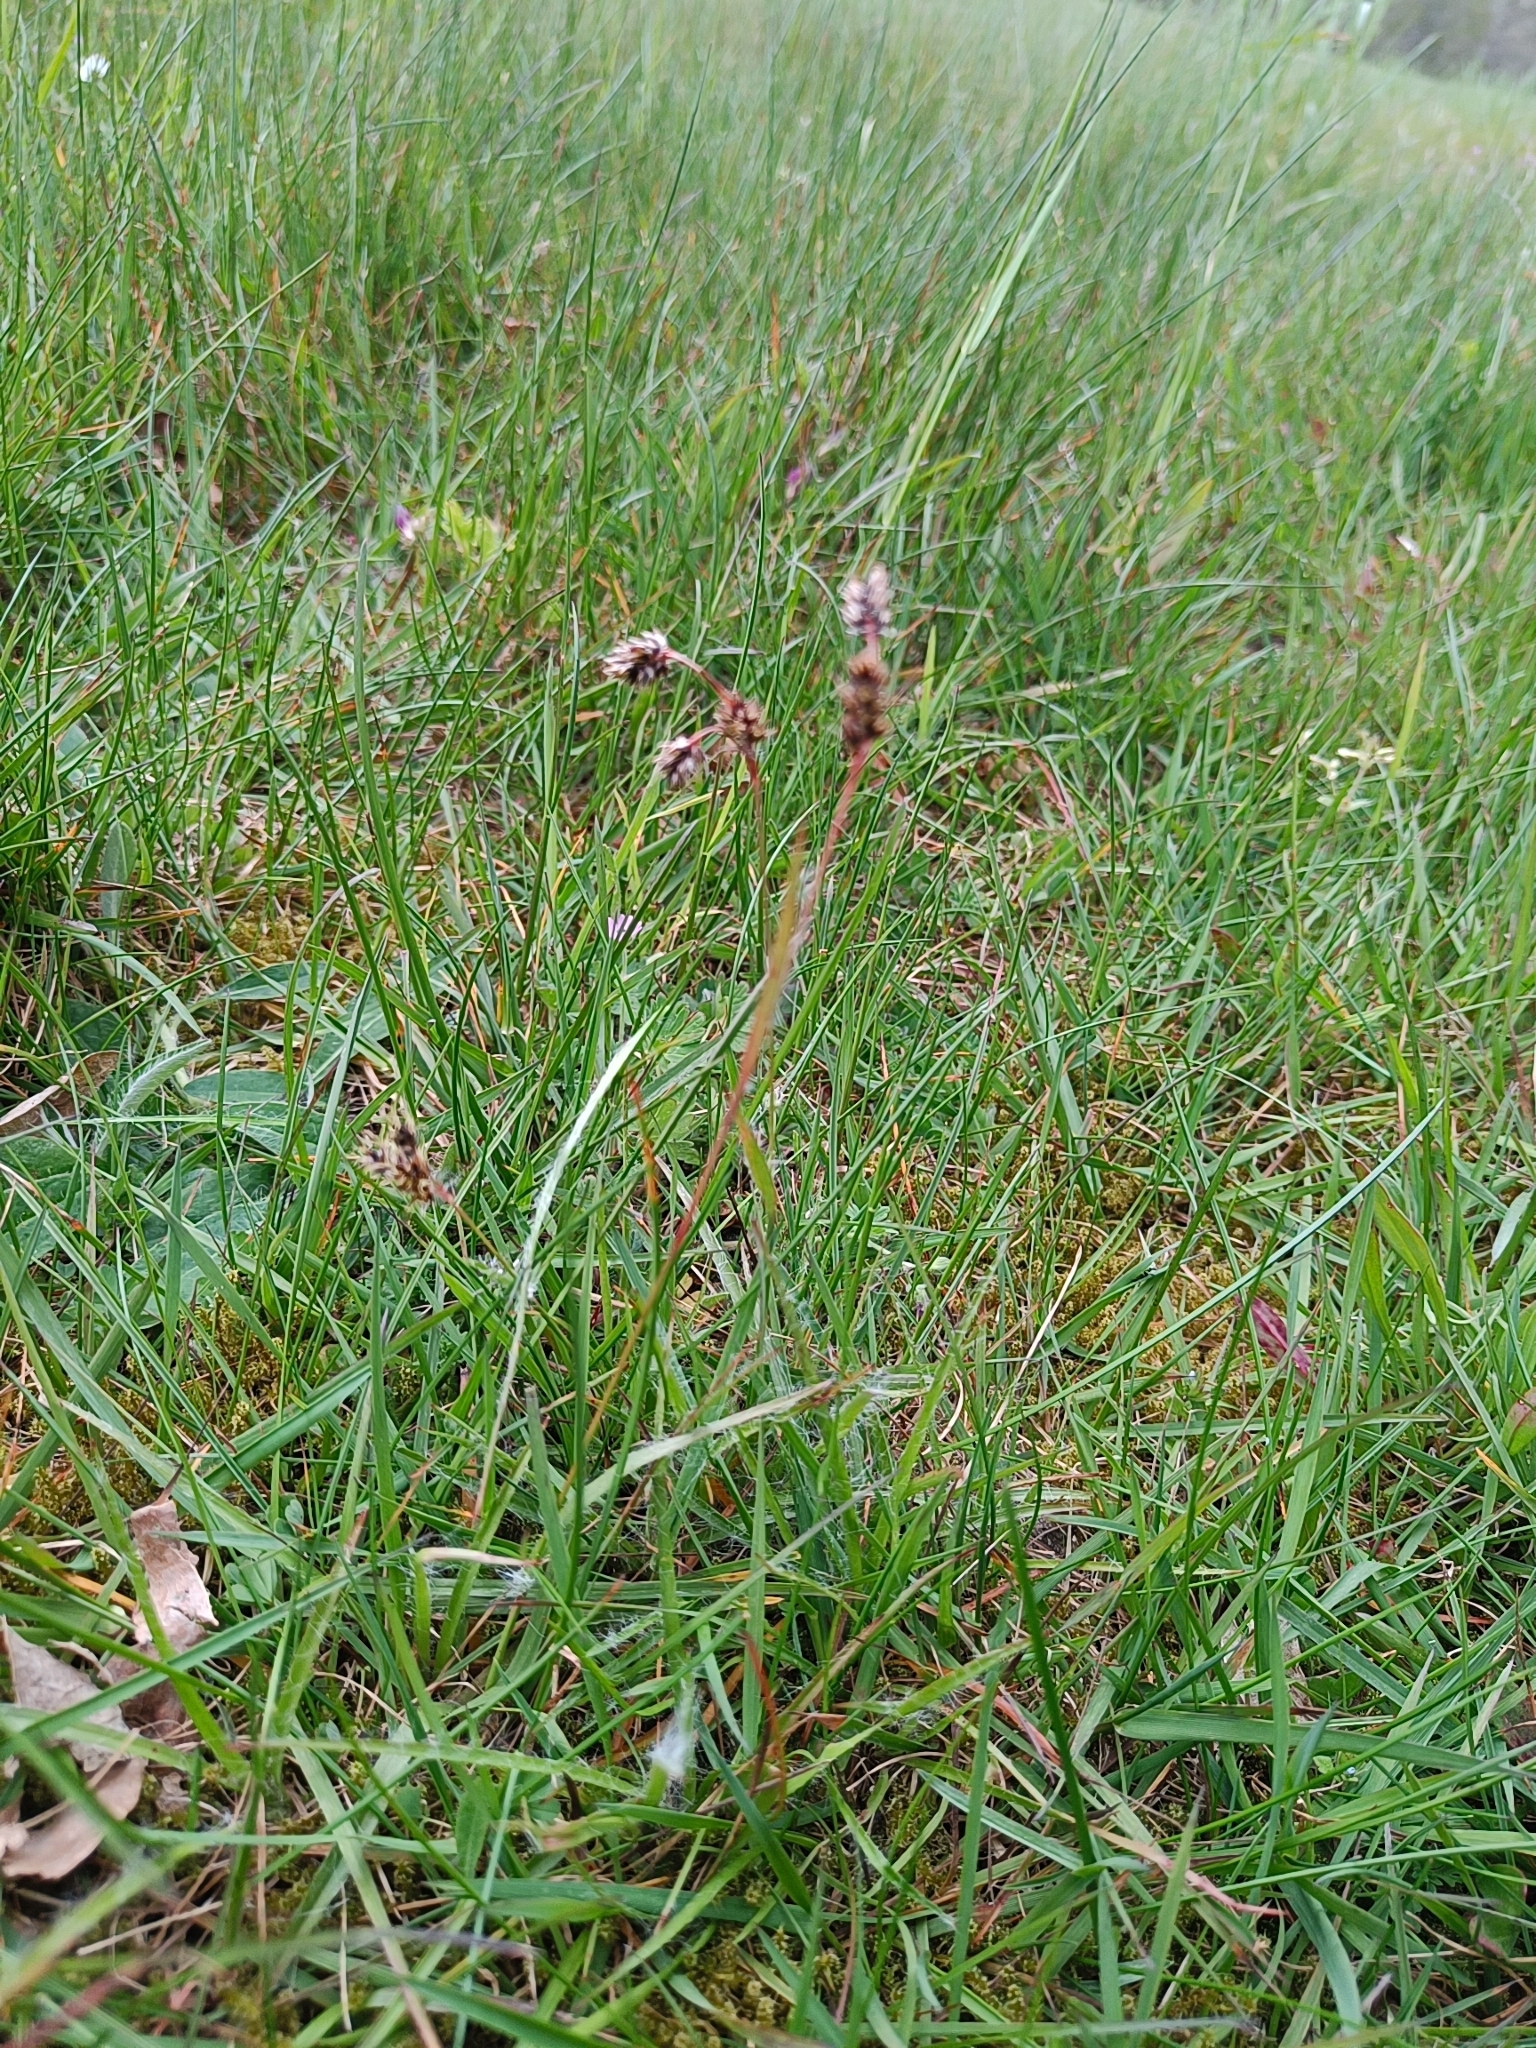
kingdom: Plantae
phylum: Tracheophyta
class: Liliopsida
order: Poales
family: Juncaceae
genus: Luzula
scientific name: Luzula campestris
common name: Field wood-rush
